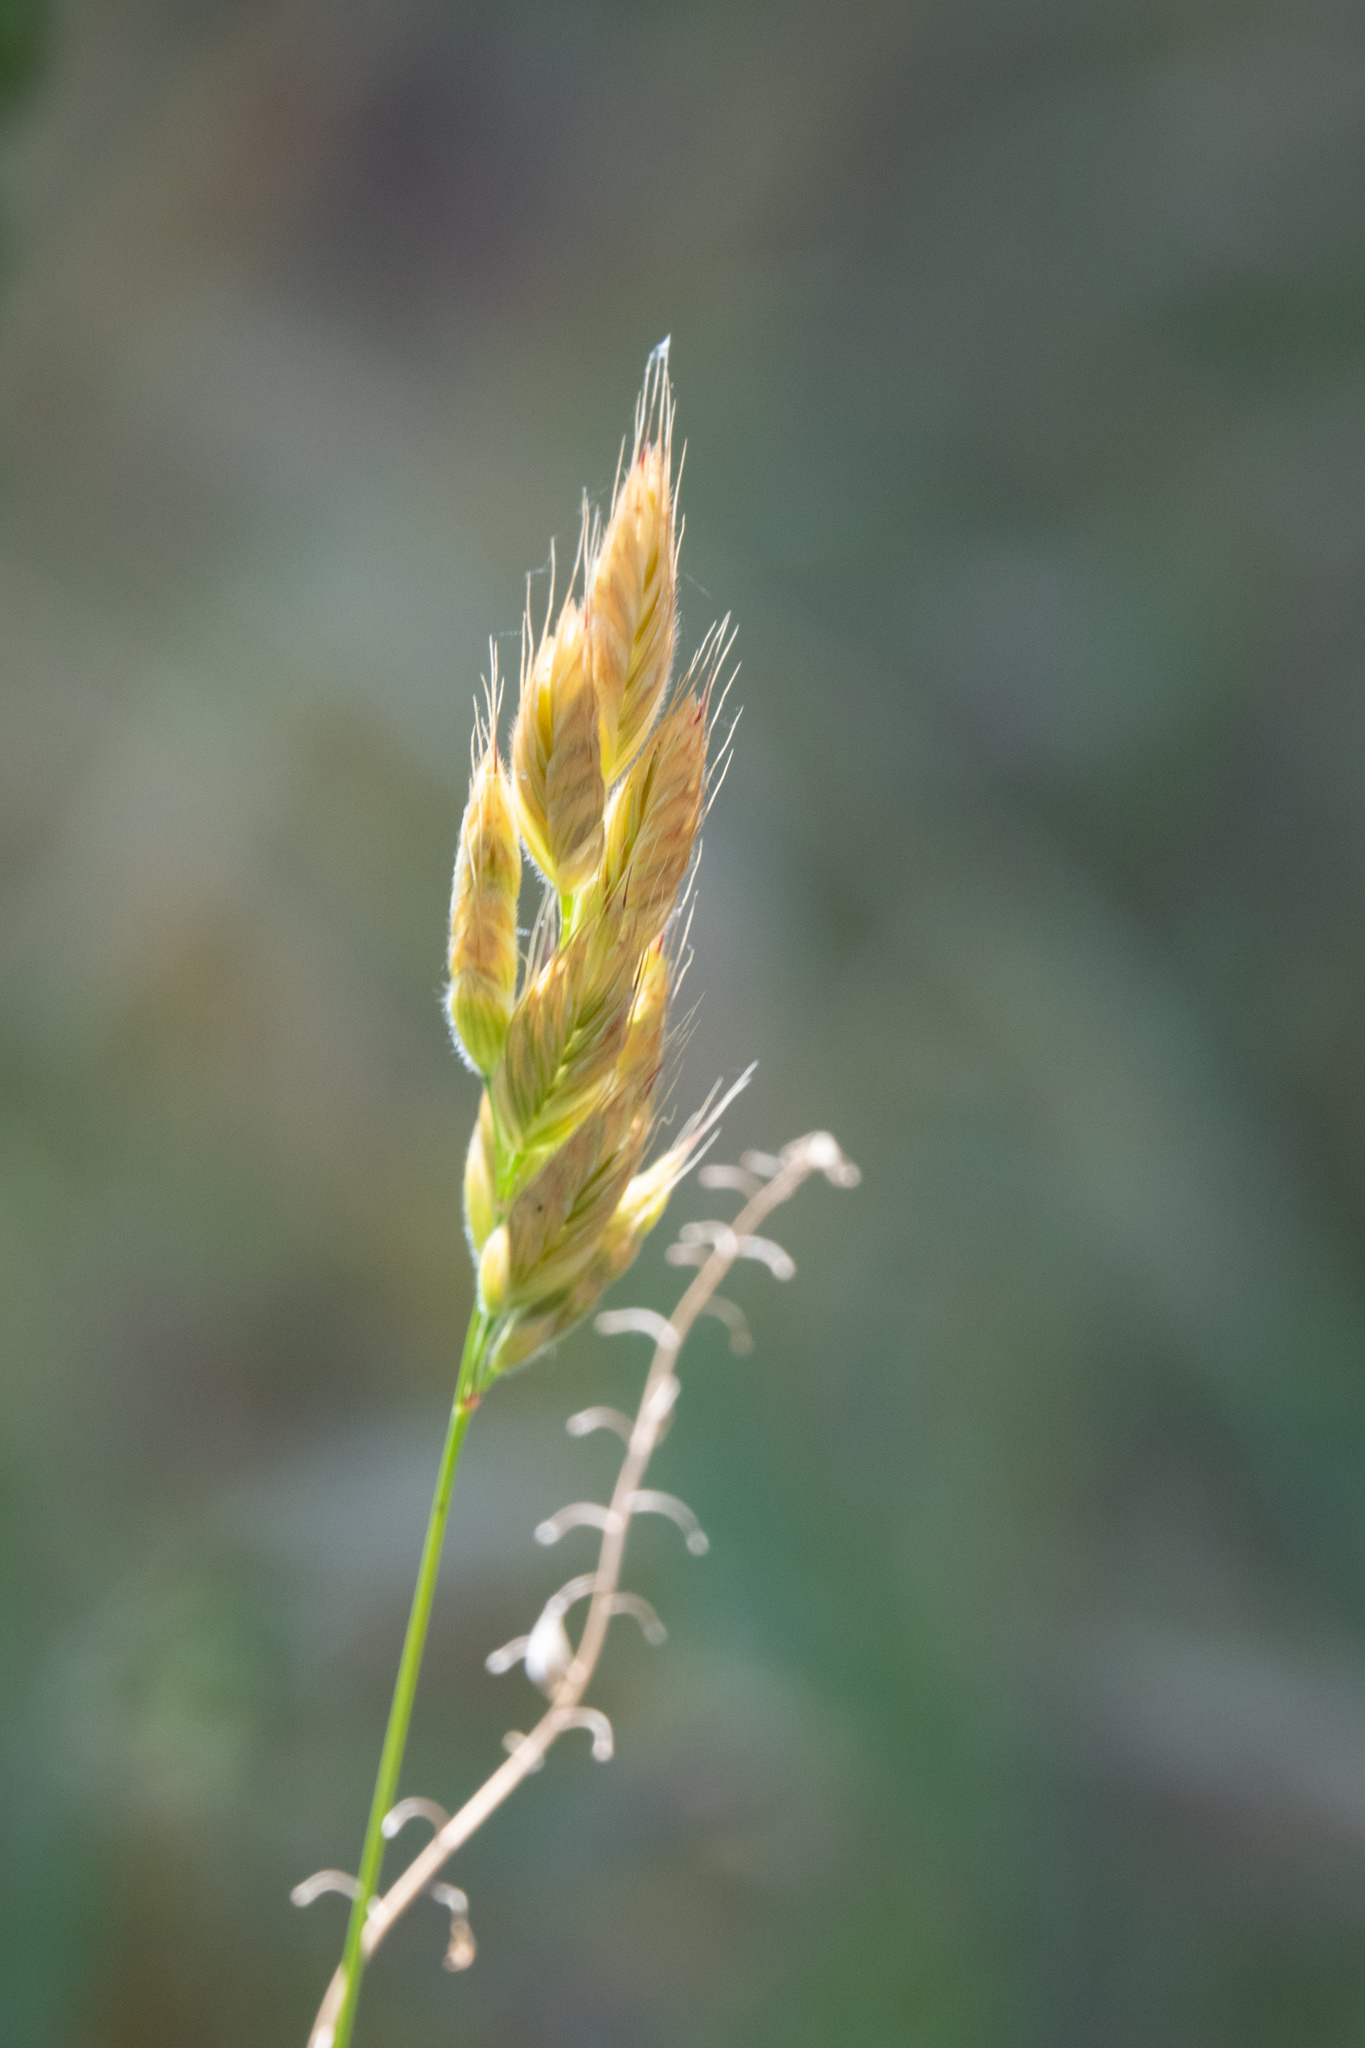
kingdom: Plantae
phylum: Tracheophyta
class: Liliopsida
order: Poales
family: Poaceae
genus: Bromus
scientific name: Bromus hordeaceus
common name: Soft brome
